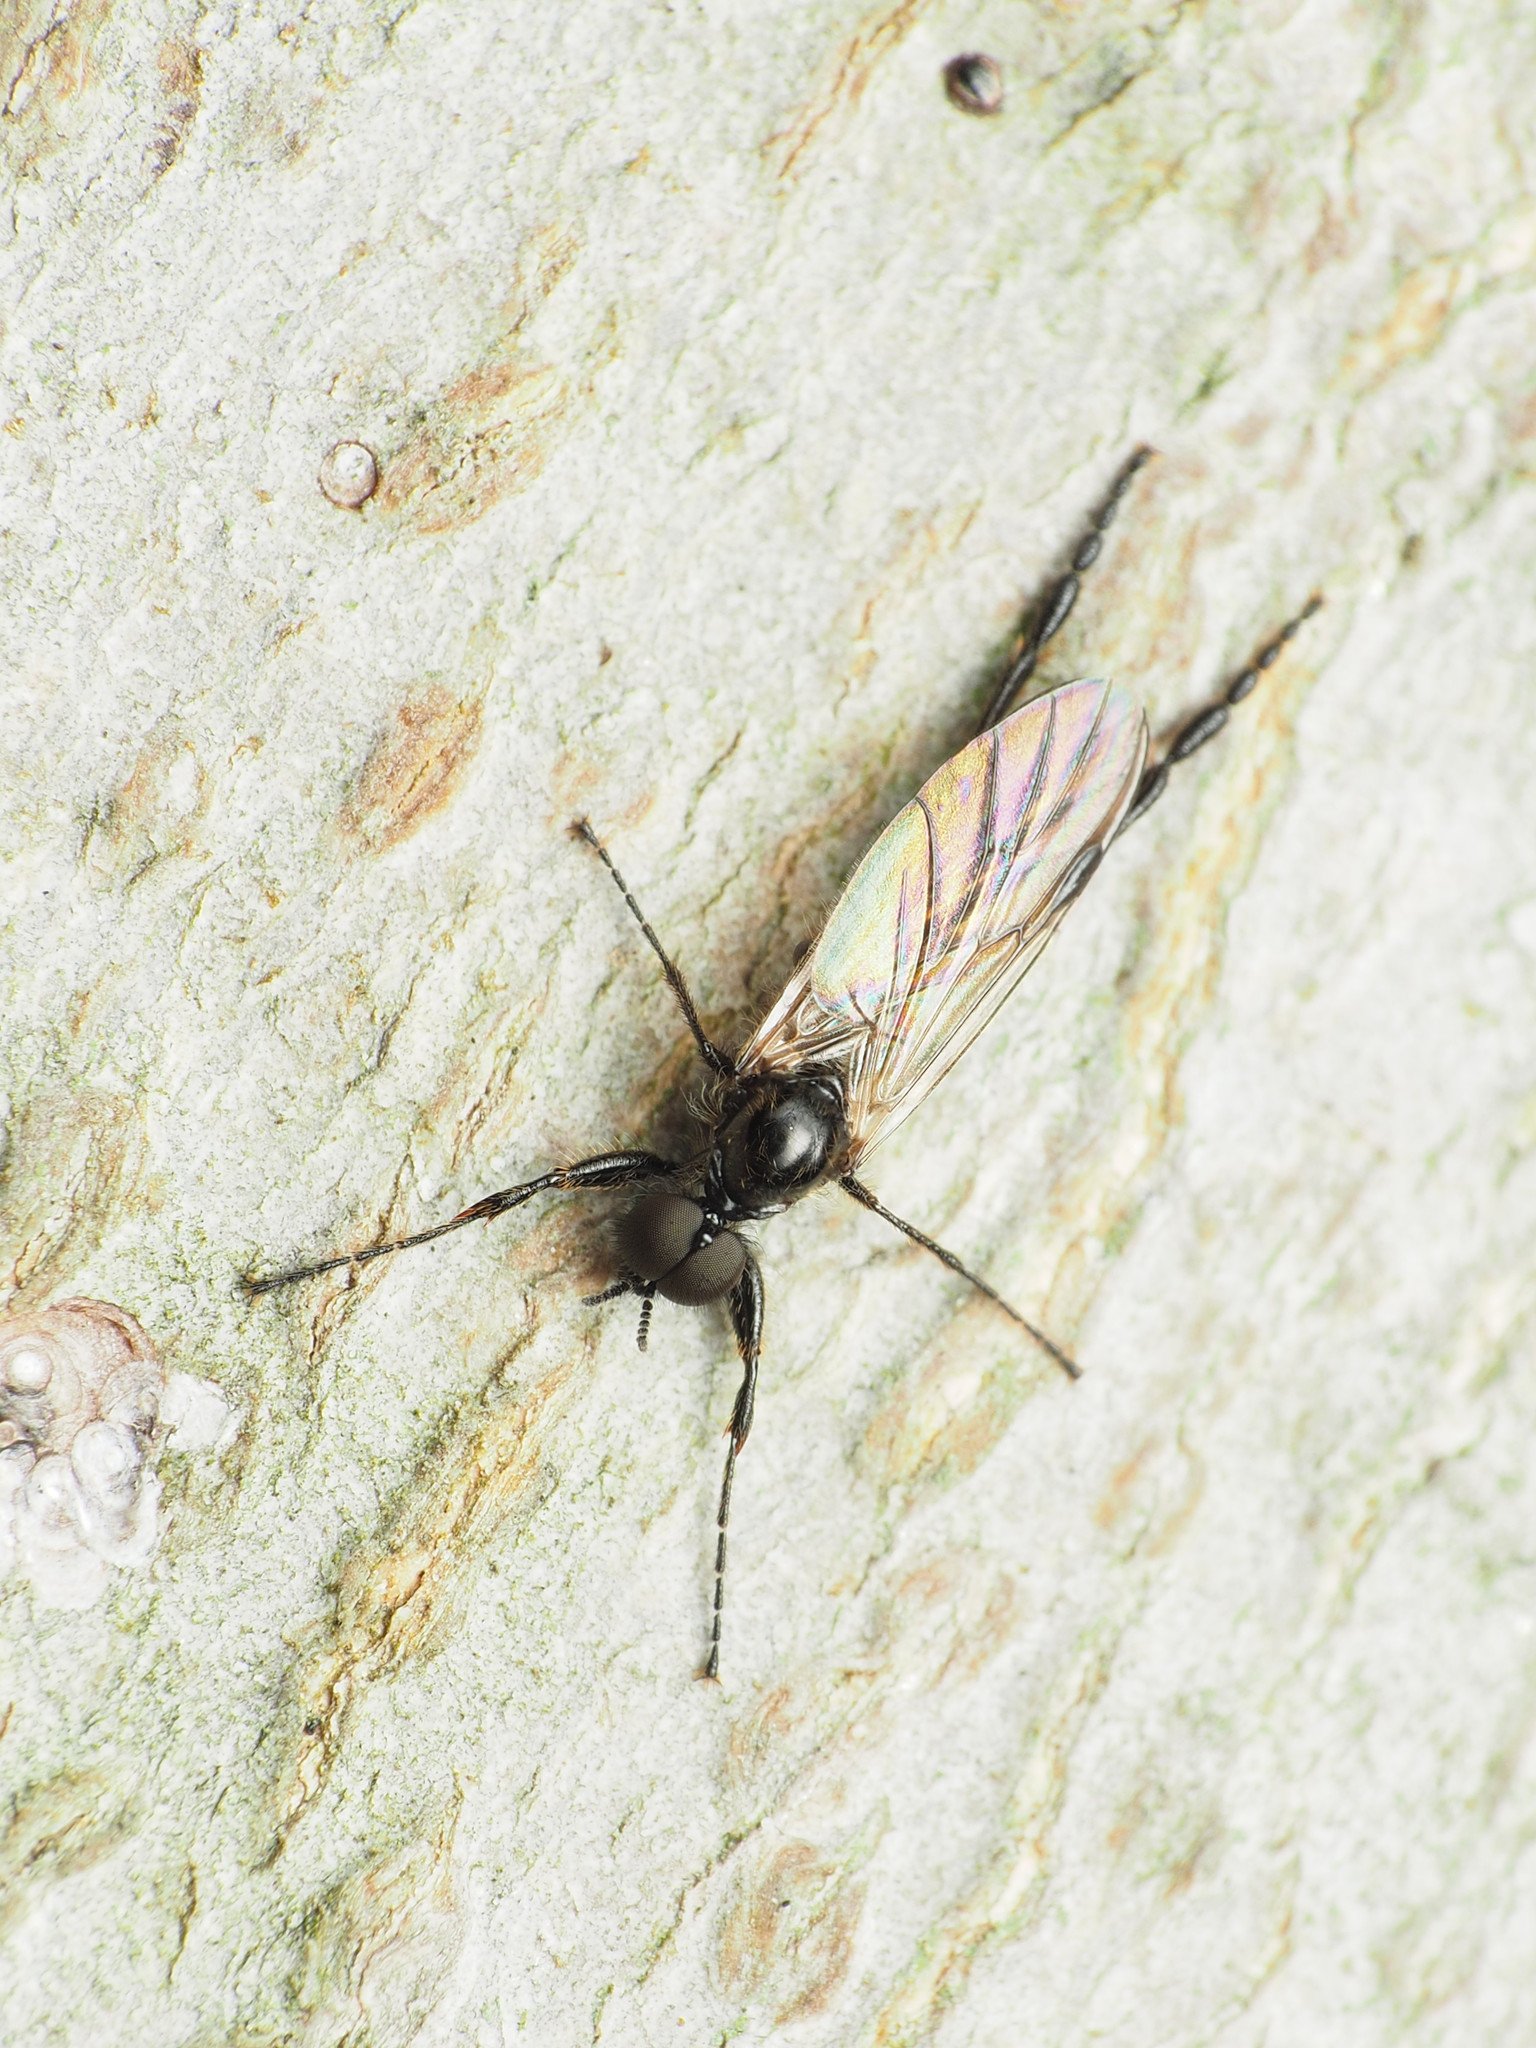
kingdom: Animalia
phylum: Arthropoda
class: Insecta
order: Diptera
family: Bibionidae
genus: Bibio
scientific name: Bibio longipes
